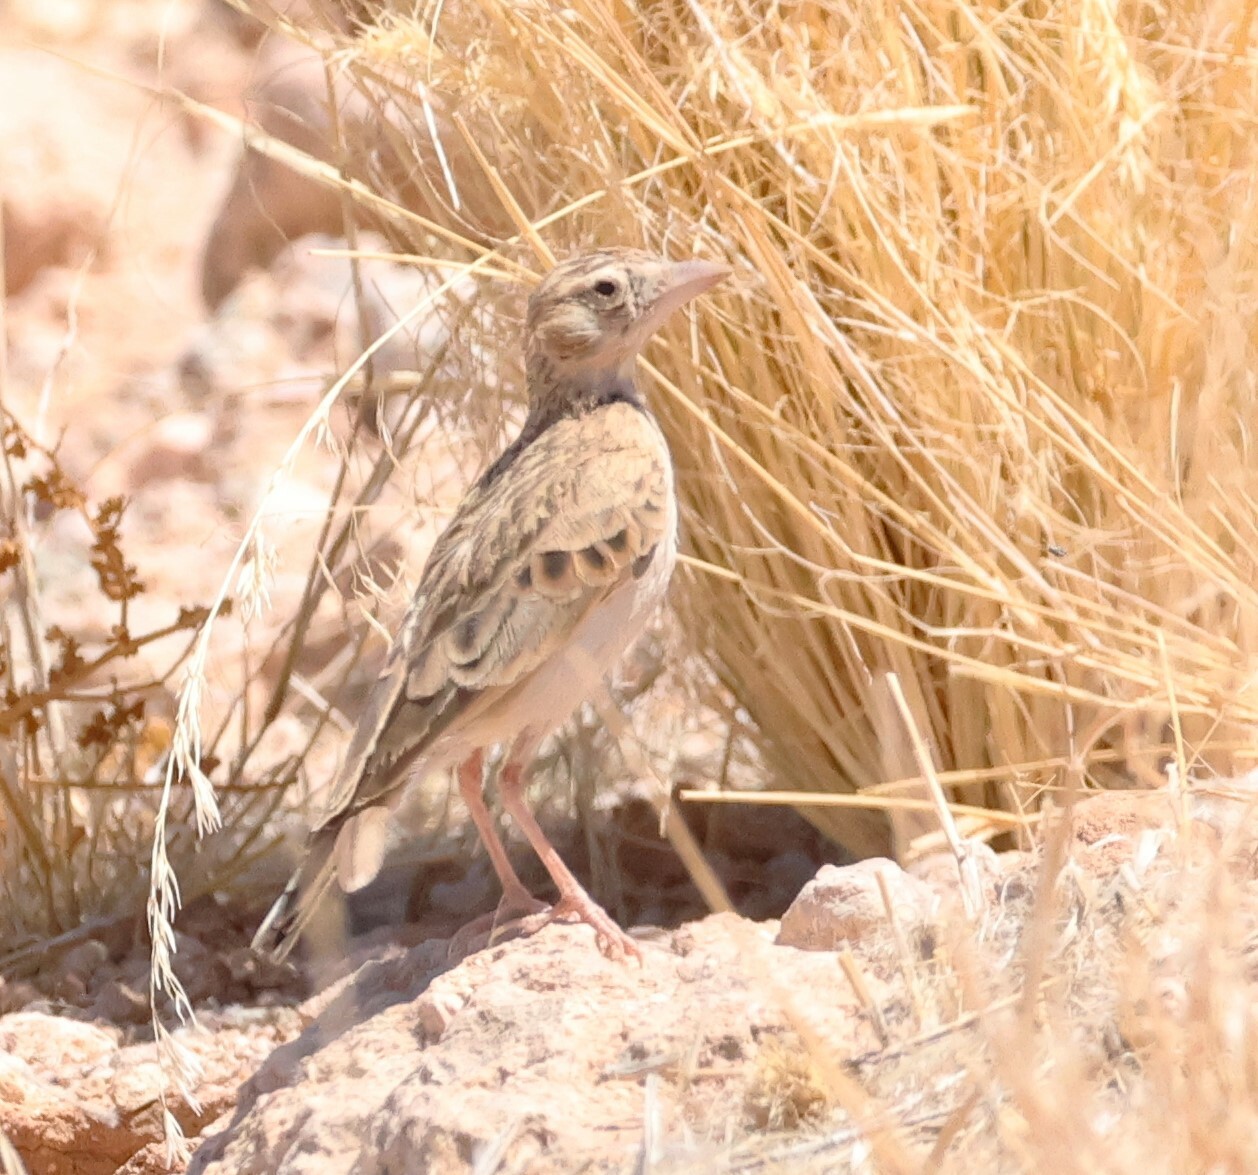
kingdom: Animalia
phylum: Chordata
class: Aves
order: Passeriformes
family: Alaudidae
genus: Spizocorys
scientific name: Spizocorys starki
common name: Stark's lark
